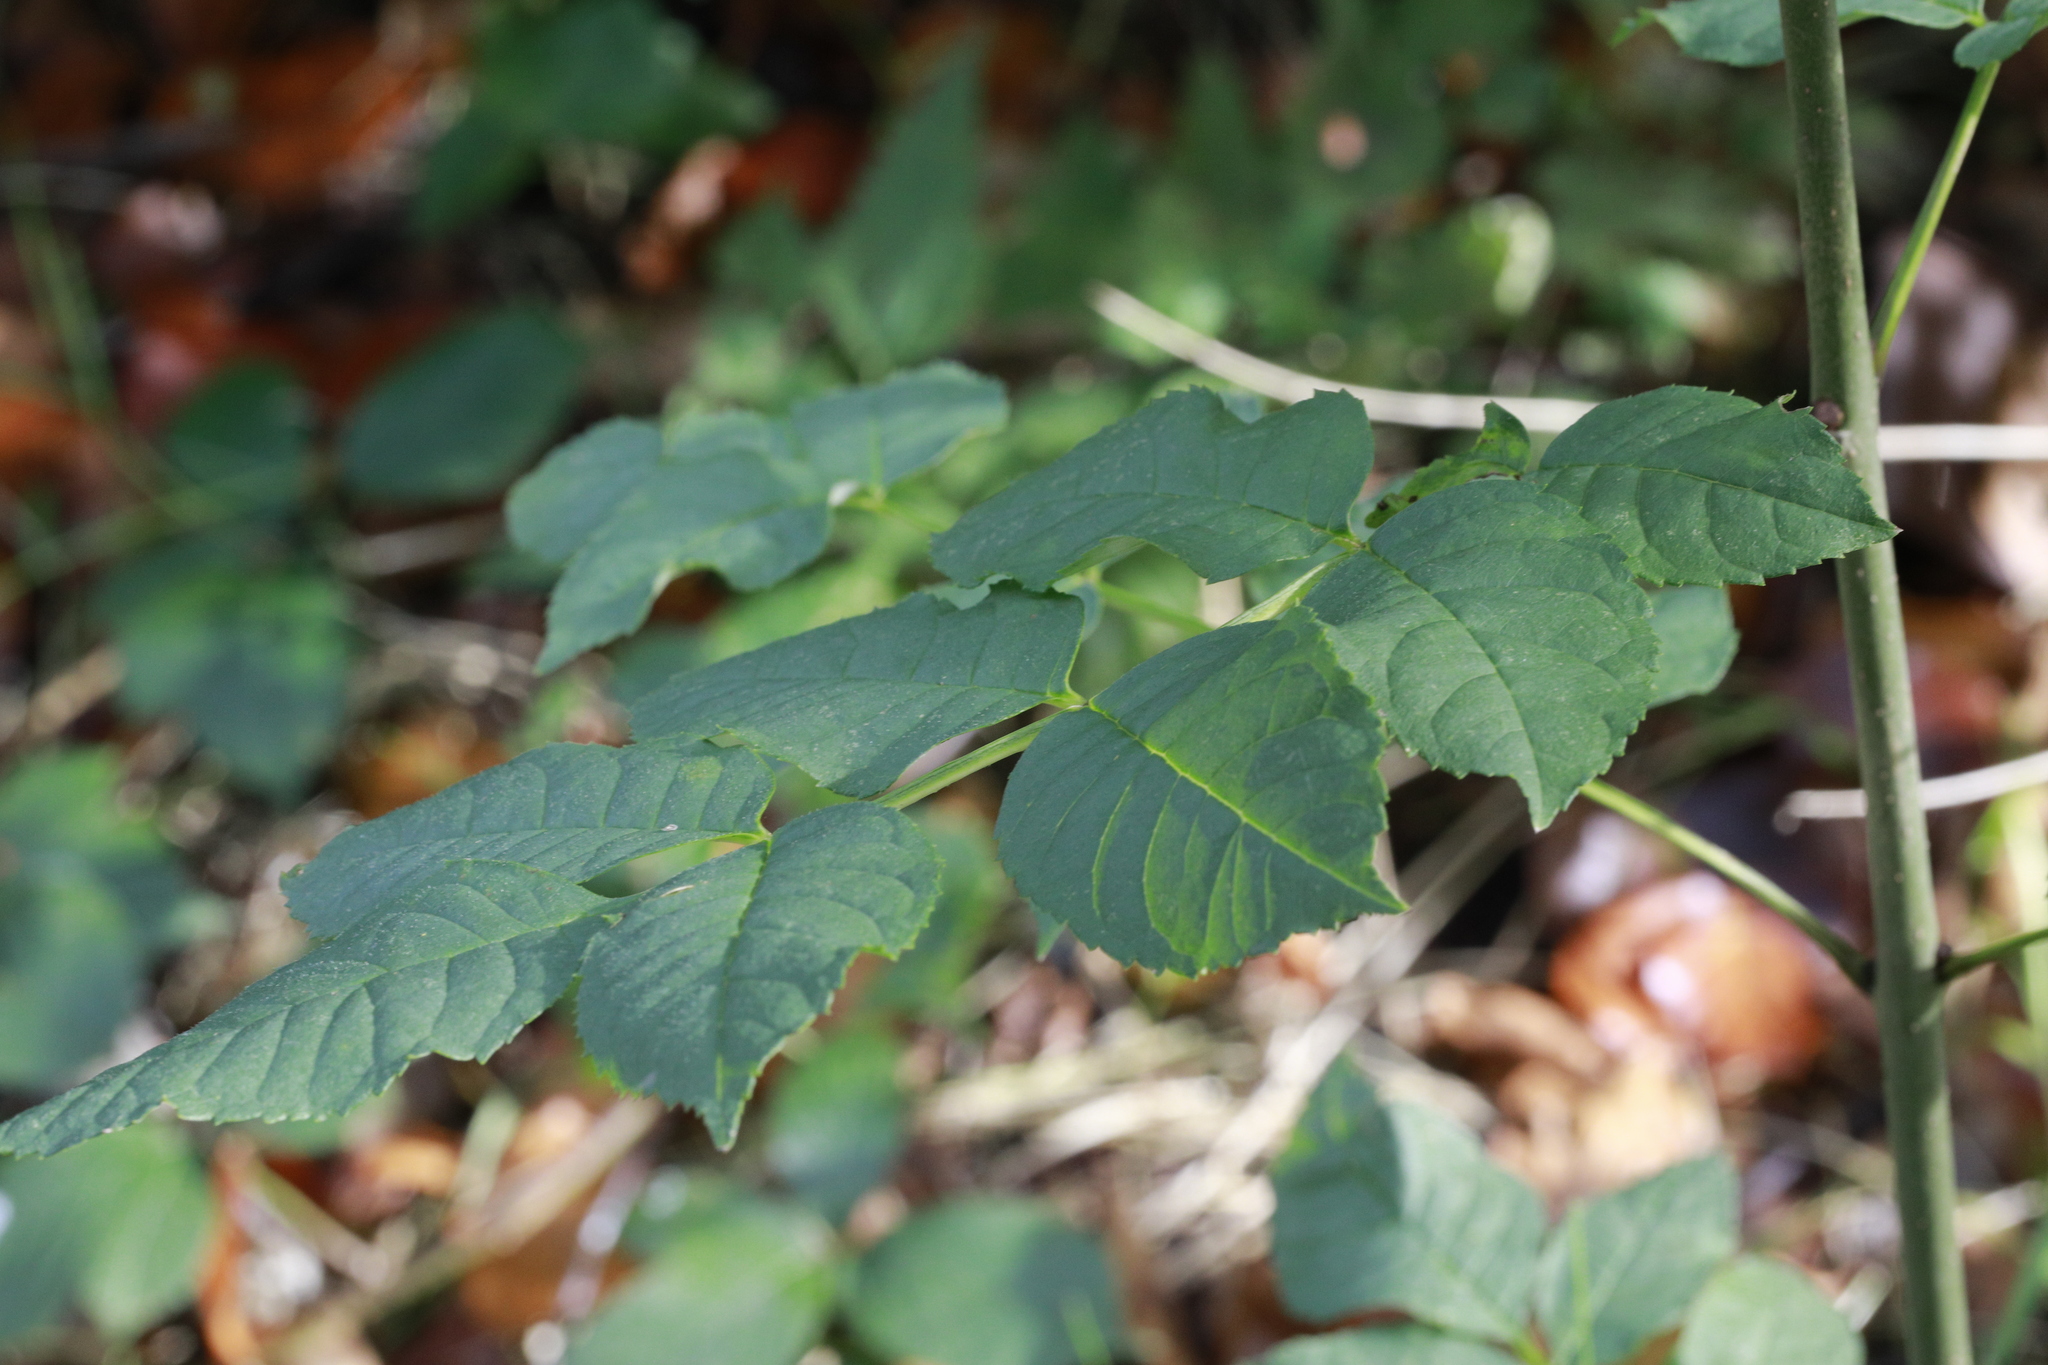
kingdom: Plantae
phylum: Tracheophyta
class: Magnoliopsida
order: Lamiales
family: Oleaceae
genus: Fraxinus
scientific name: Fraxinus excelsior
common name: European ash
